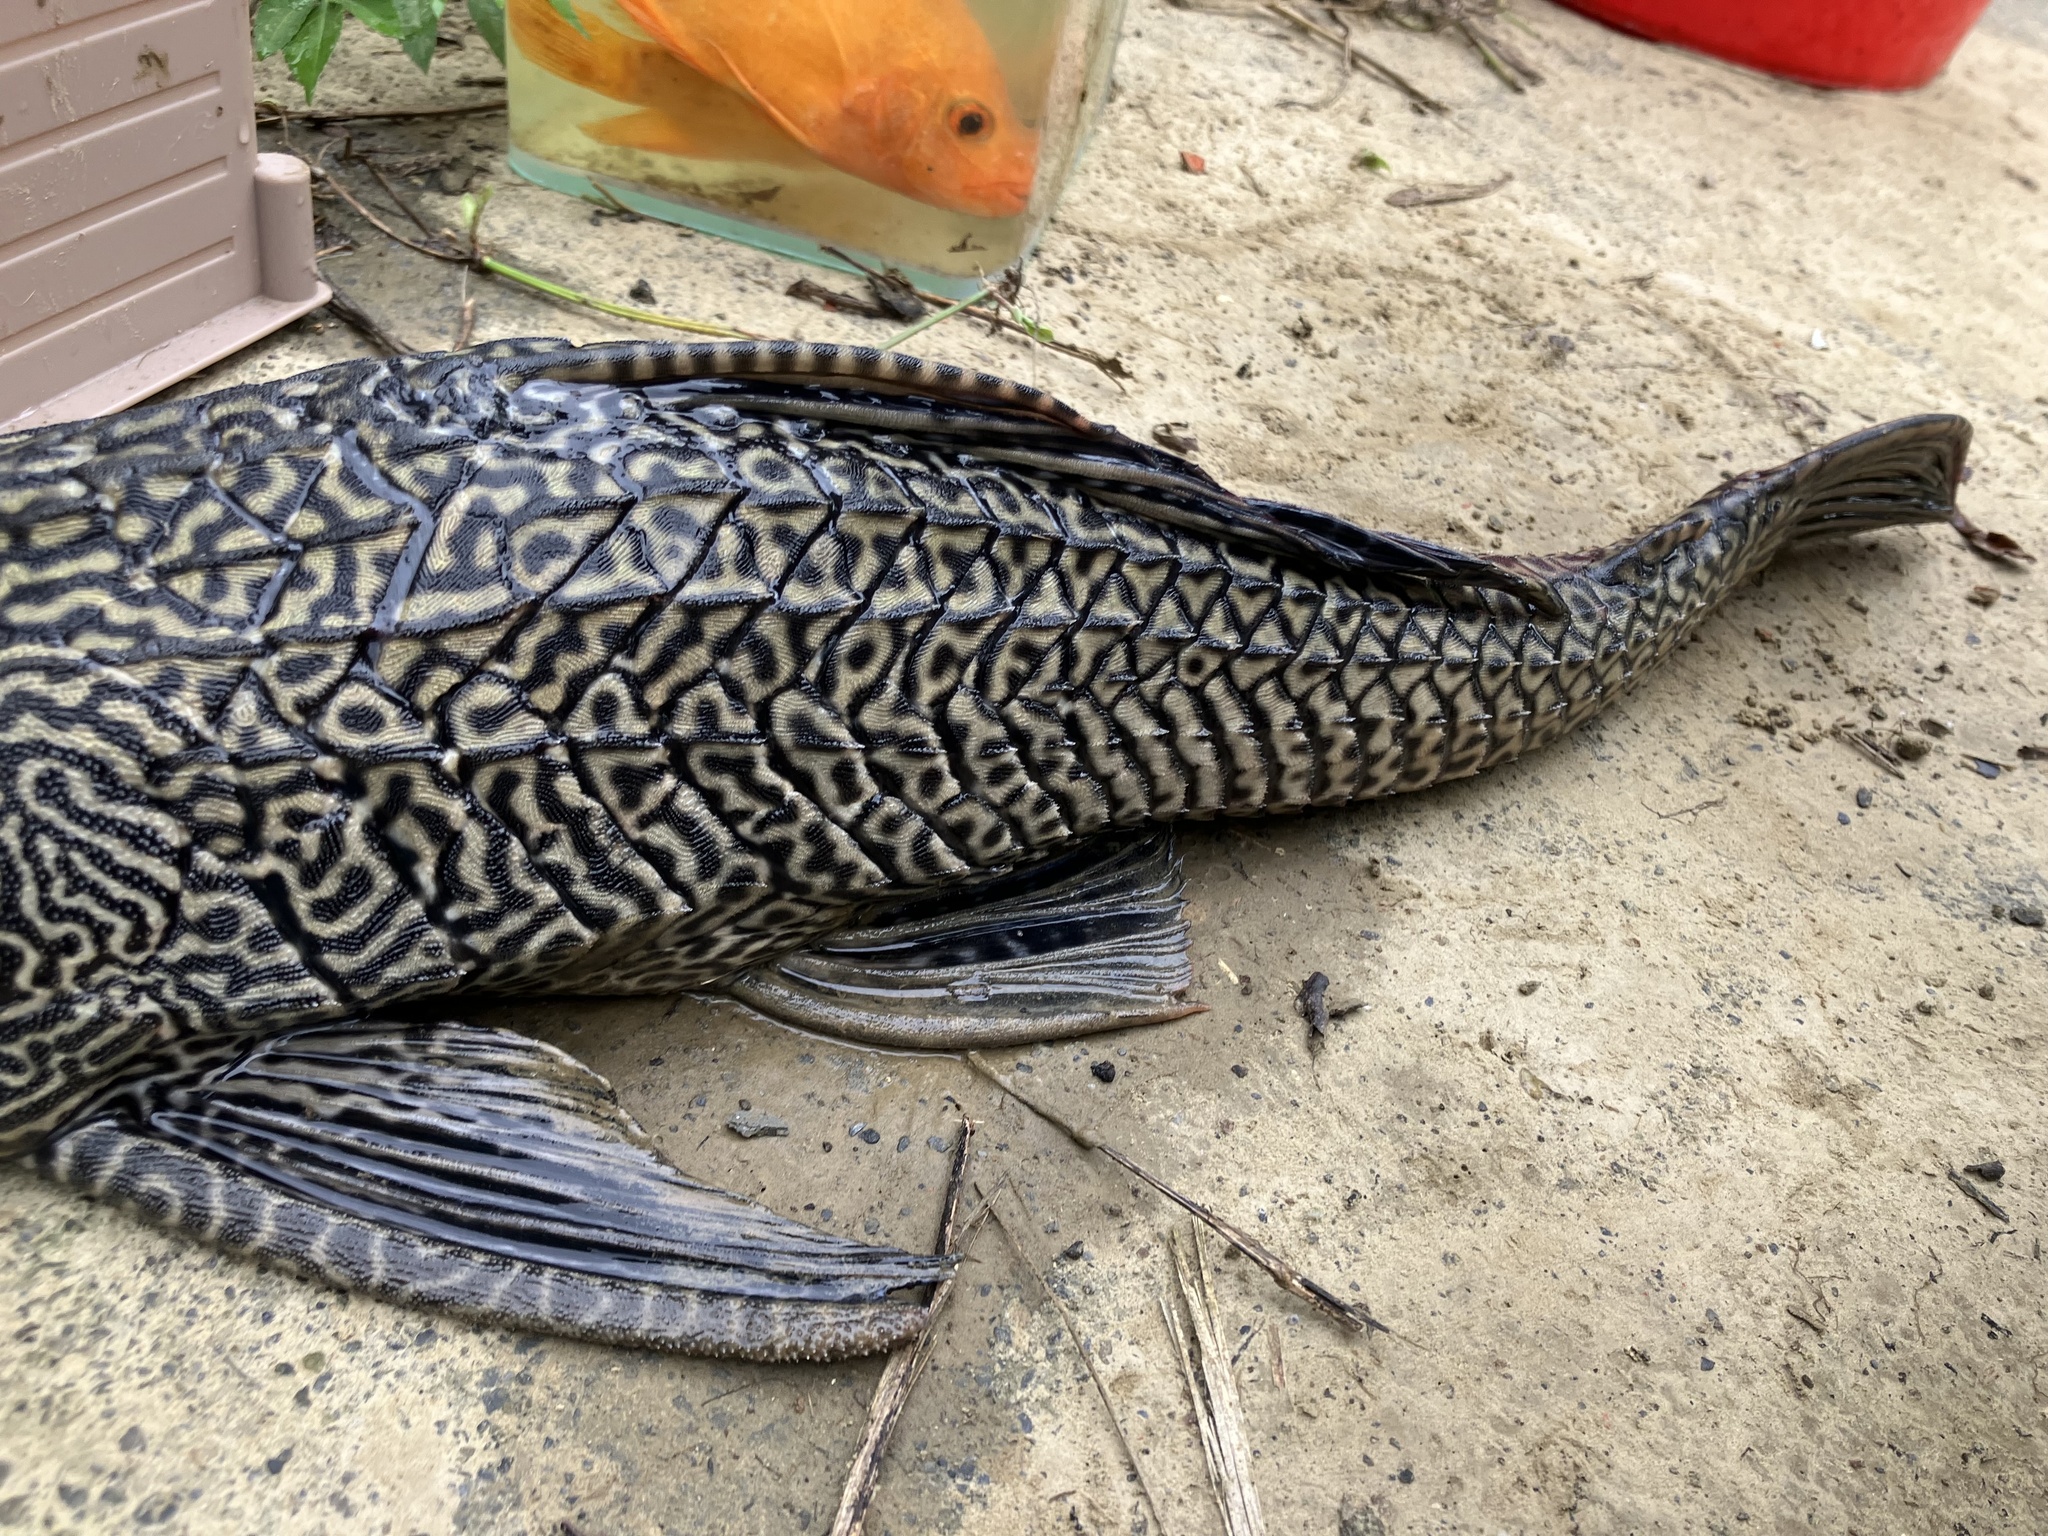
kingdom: Animalia
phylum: Chordata
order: Siluriformes
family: Loricariidae
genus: Pterygoplichthys
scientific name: Pterygoplichthys
